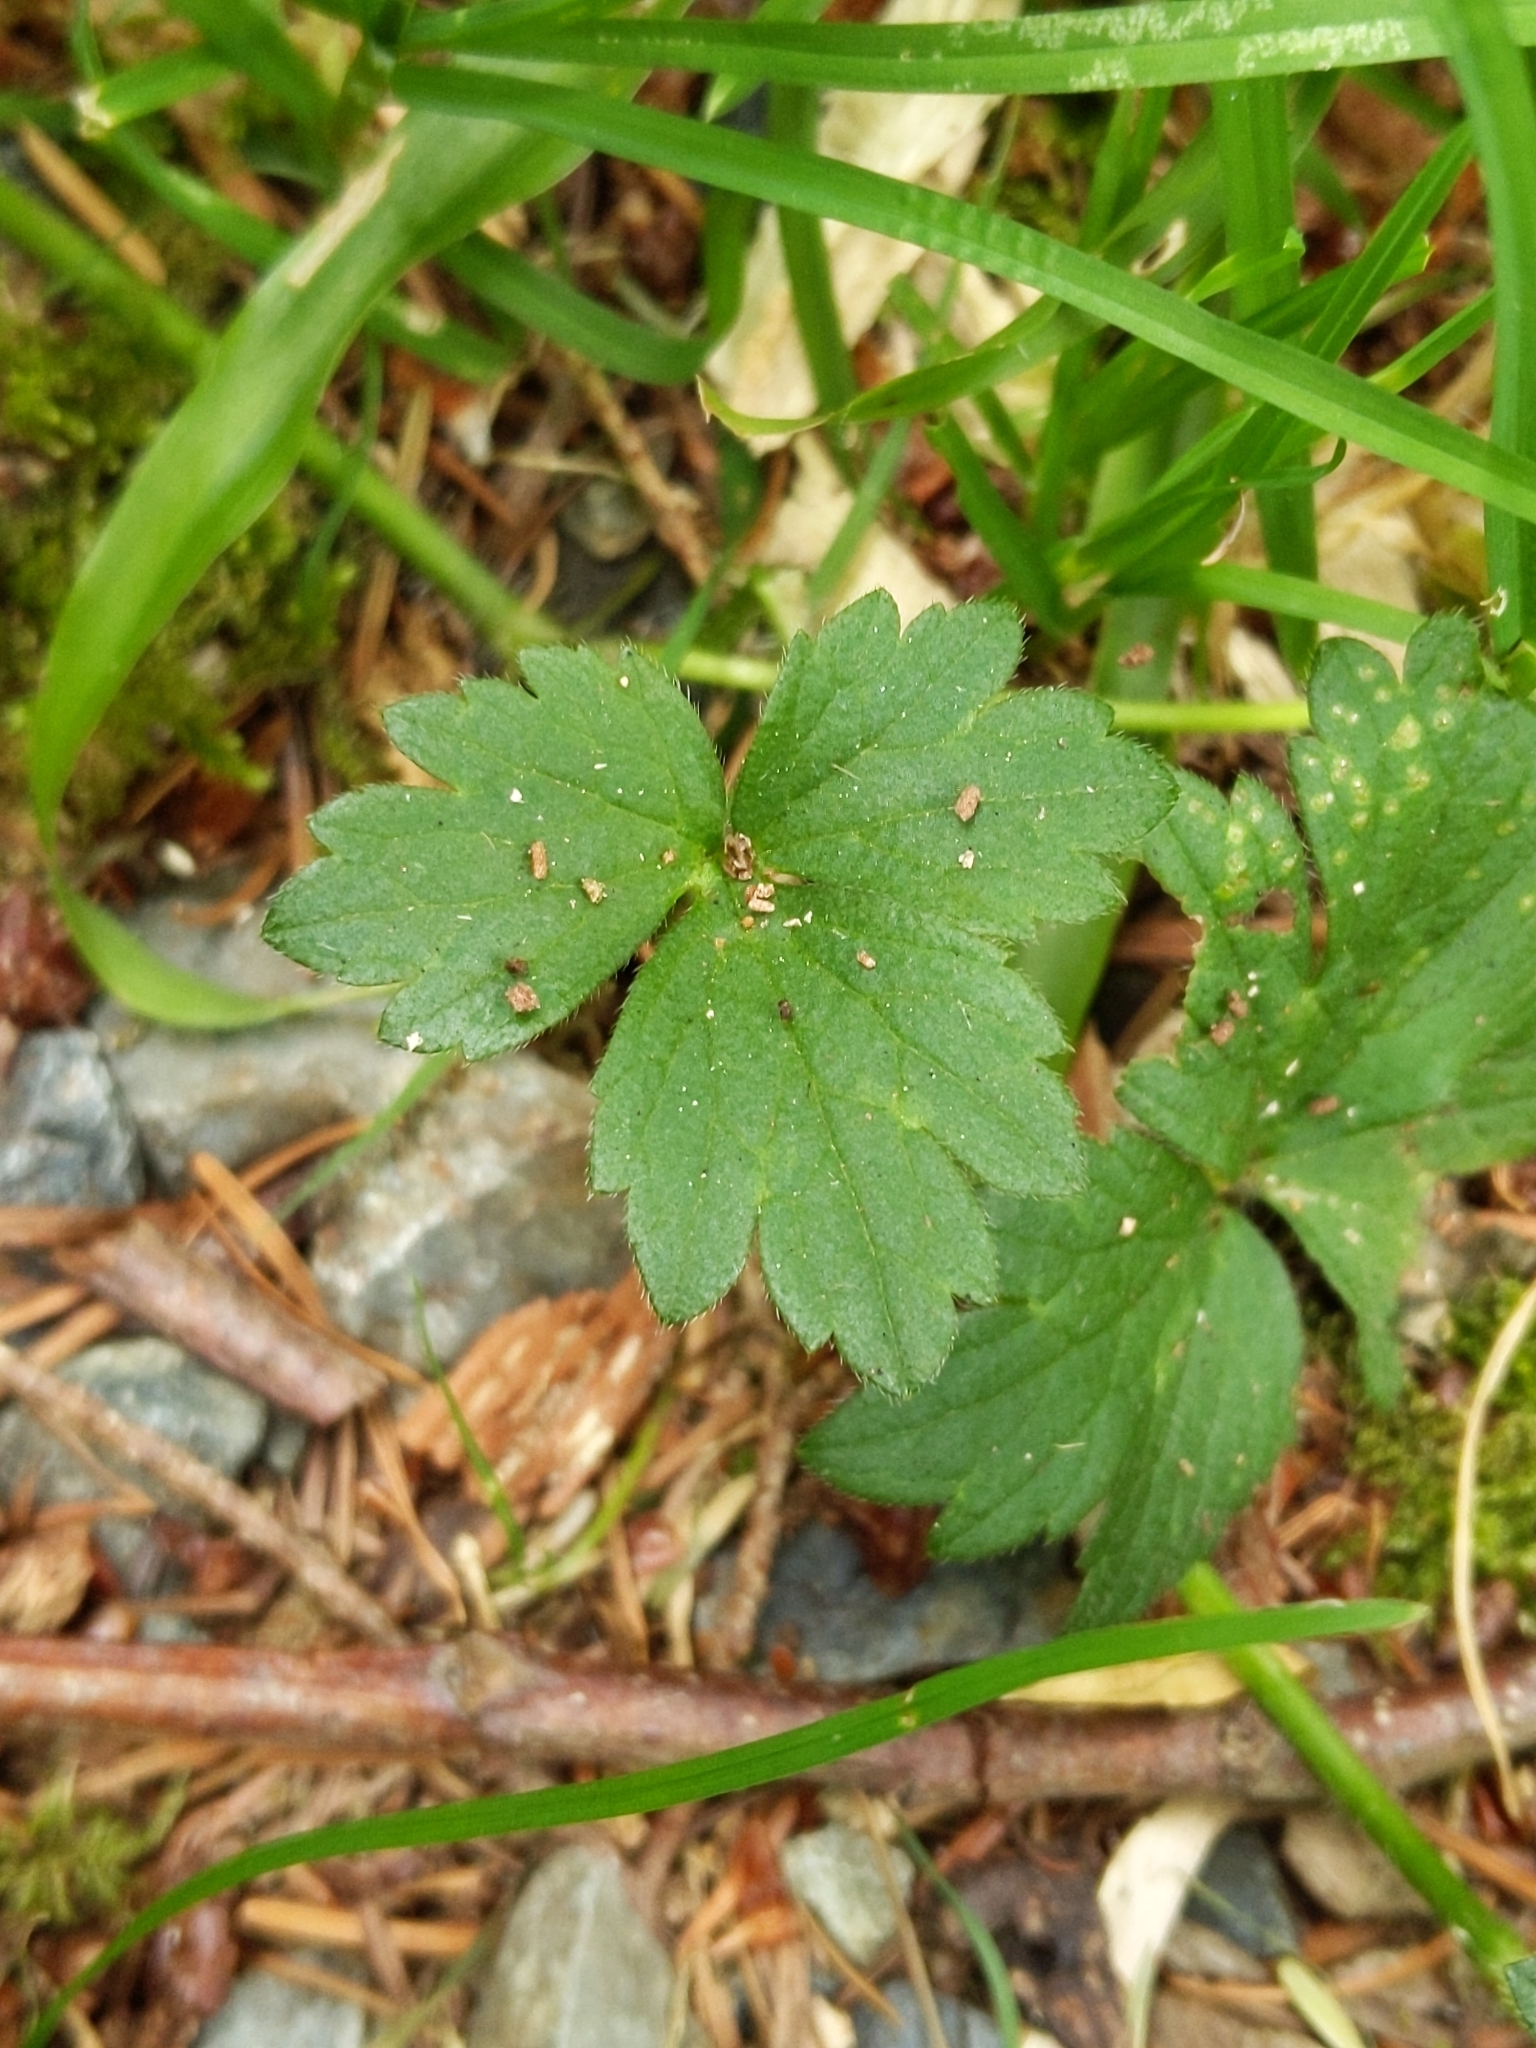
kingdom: Plantae
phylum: Tracheophyta
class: Magnoliopsida
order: Ranunculales
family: Ranunculaceae
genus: Ranunculus
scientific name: Ranunculus repens
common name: Creeping buttercup
